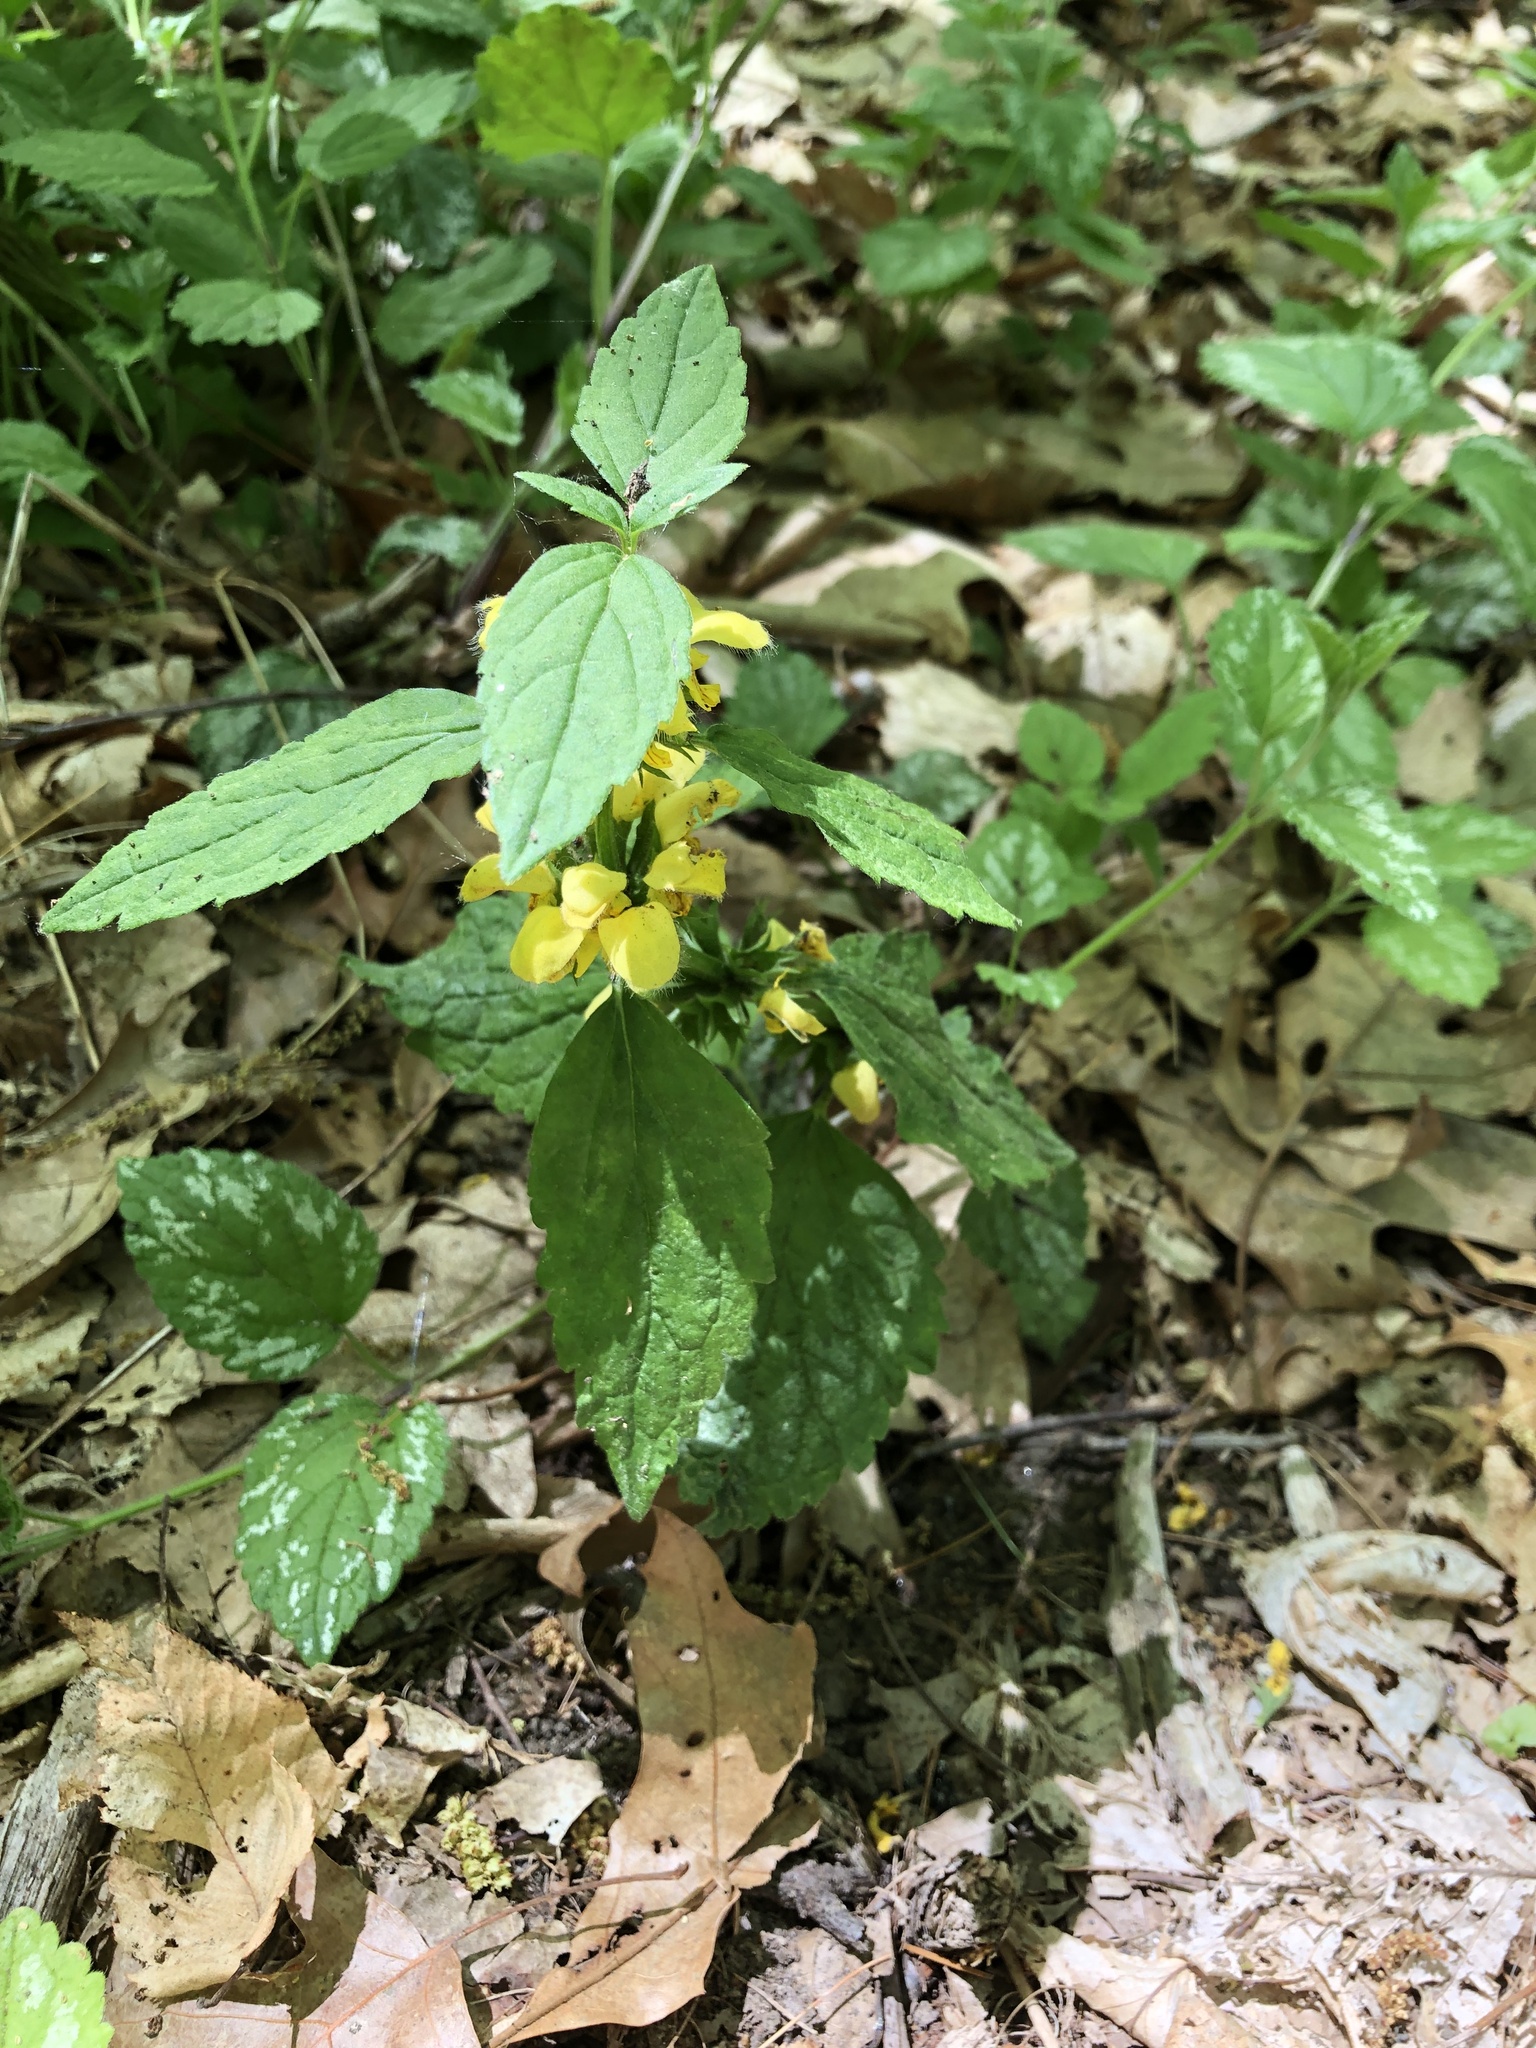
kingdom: Plantae
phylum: Tracheophyta
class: Magnoliopsida
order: Lamiales
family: Lamiaceae
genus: Lamium
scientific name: Lamium galeobdolon
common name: Yellow archangel
